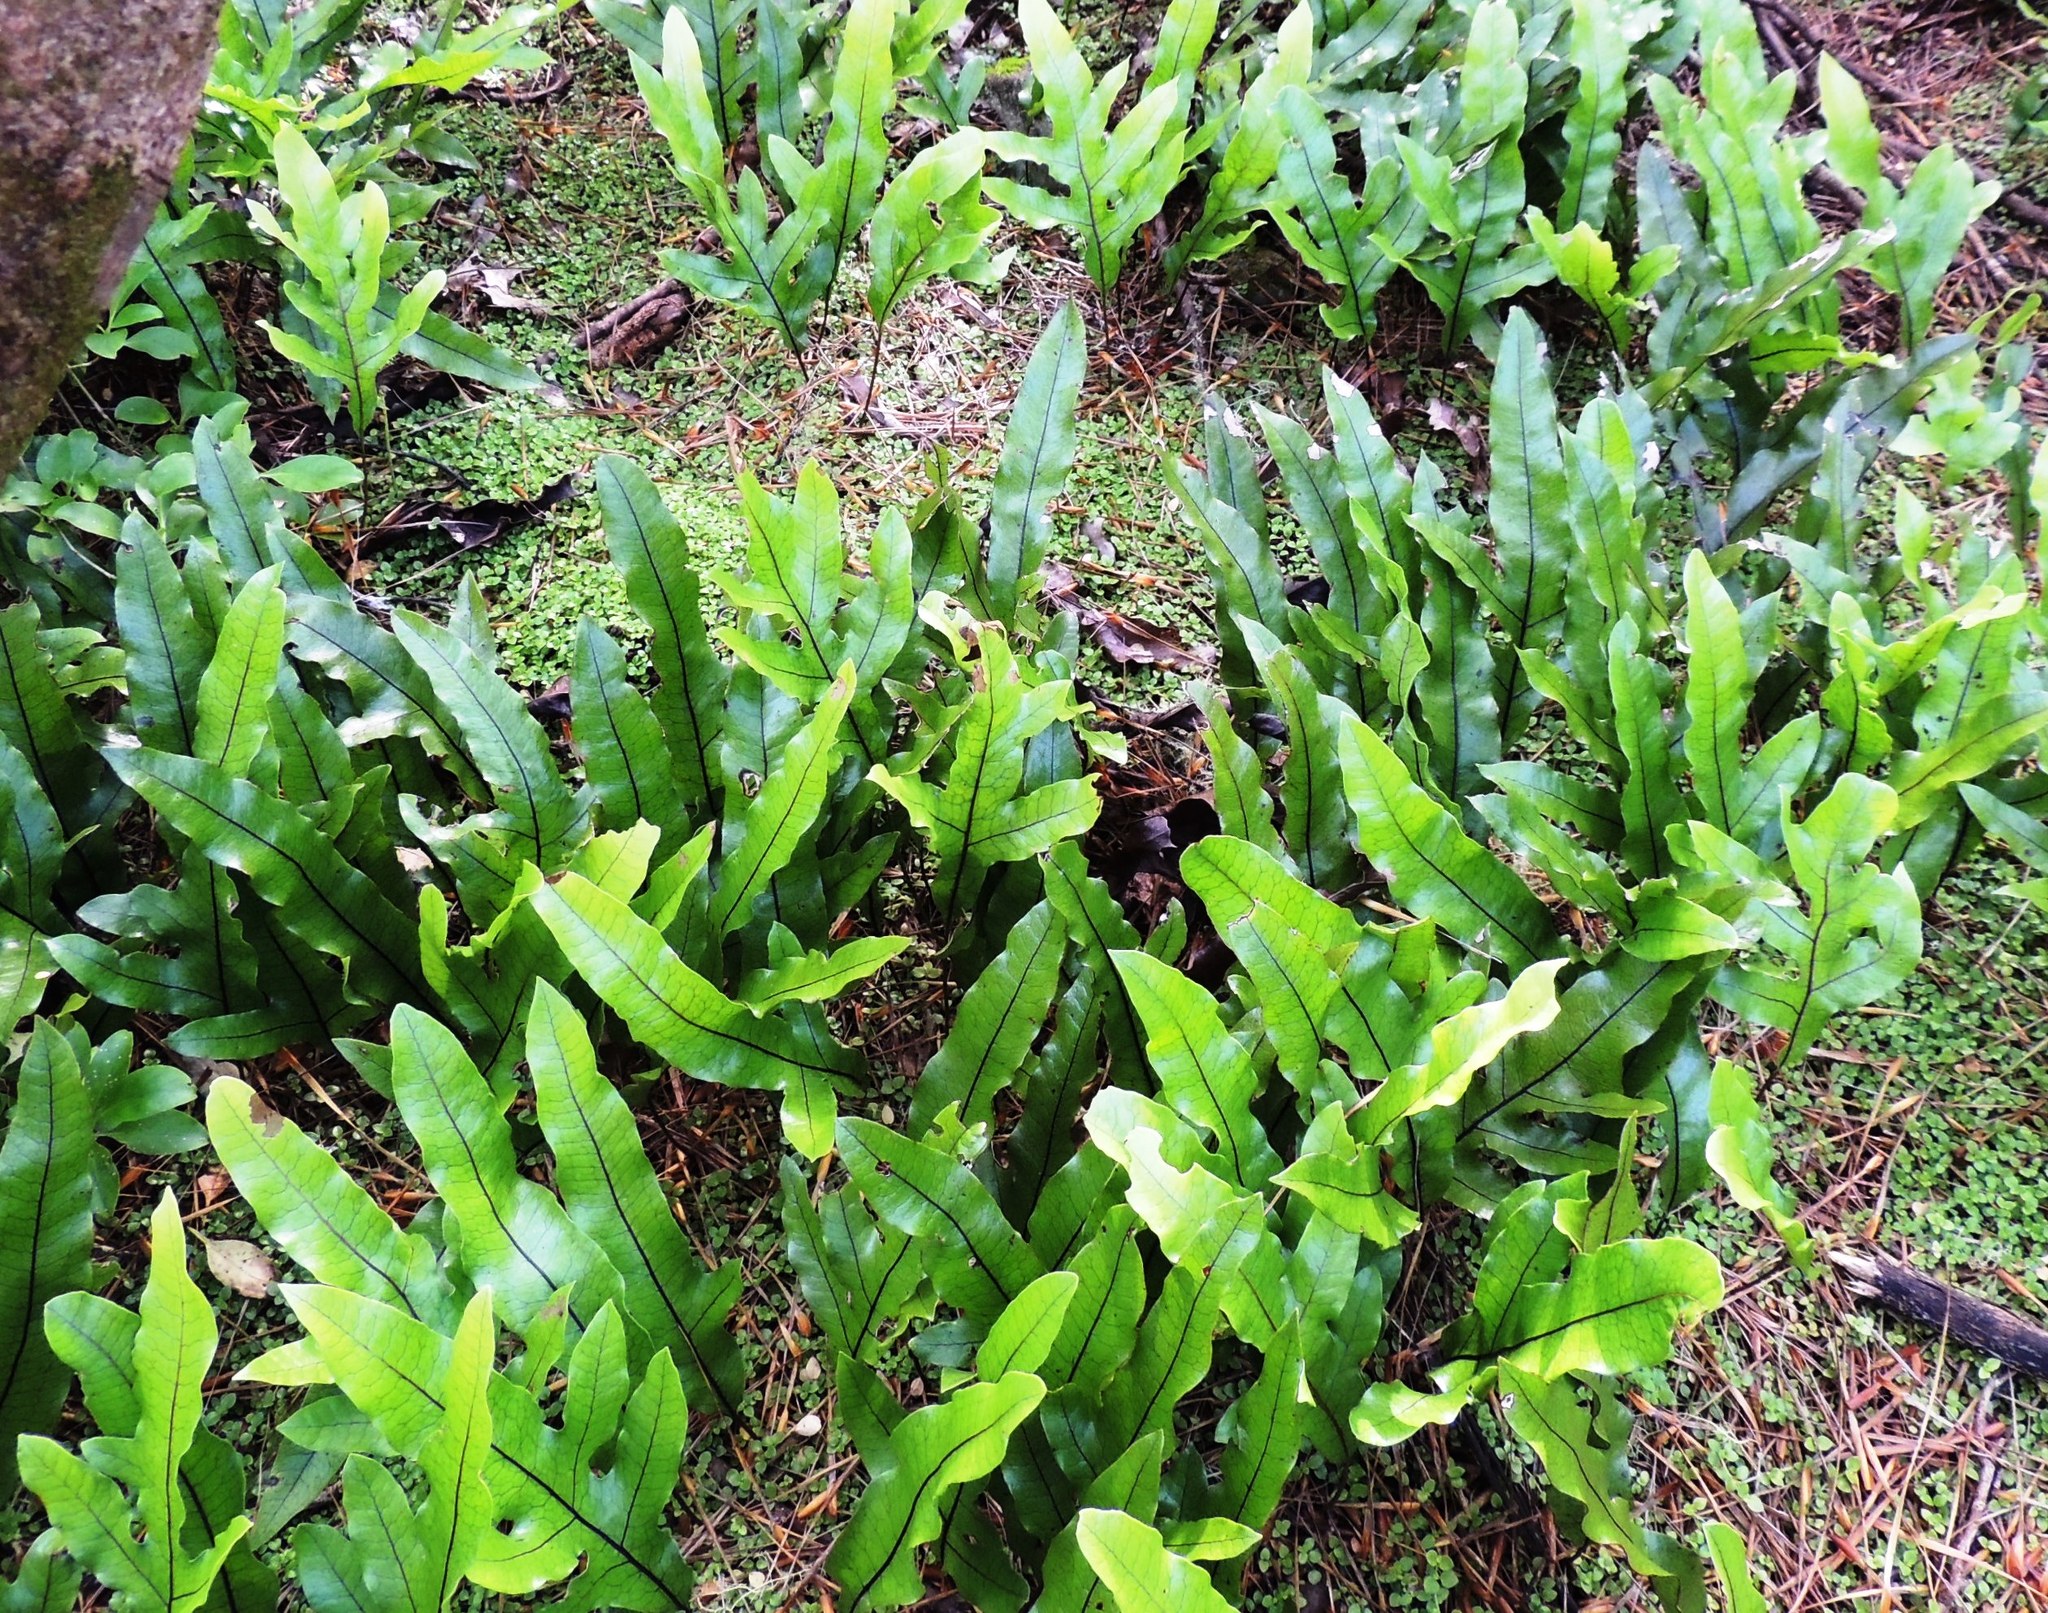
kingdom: Plantae
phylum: Tracheophyta
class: Polypodiopsida
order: Polypodiales
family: Polypodiaceae
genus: Lecanopteris
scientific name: Lecanopteris pustulata
